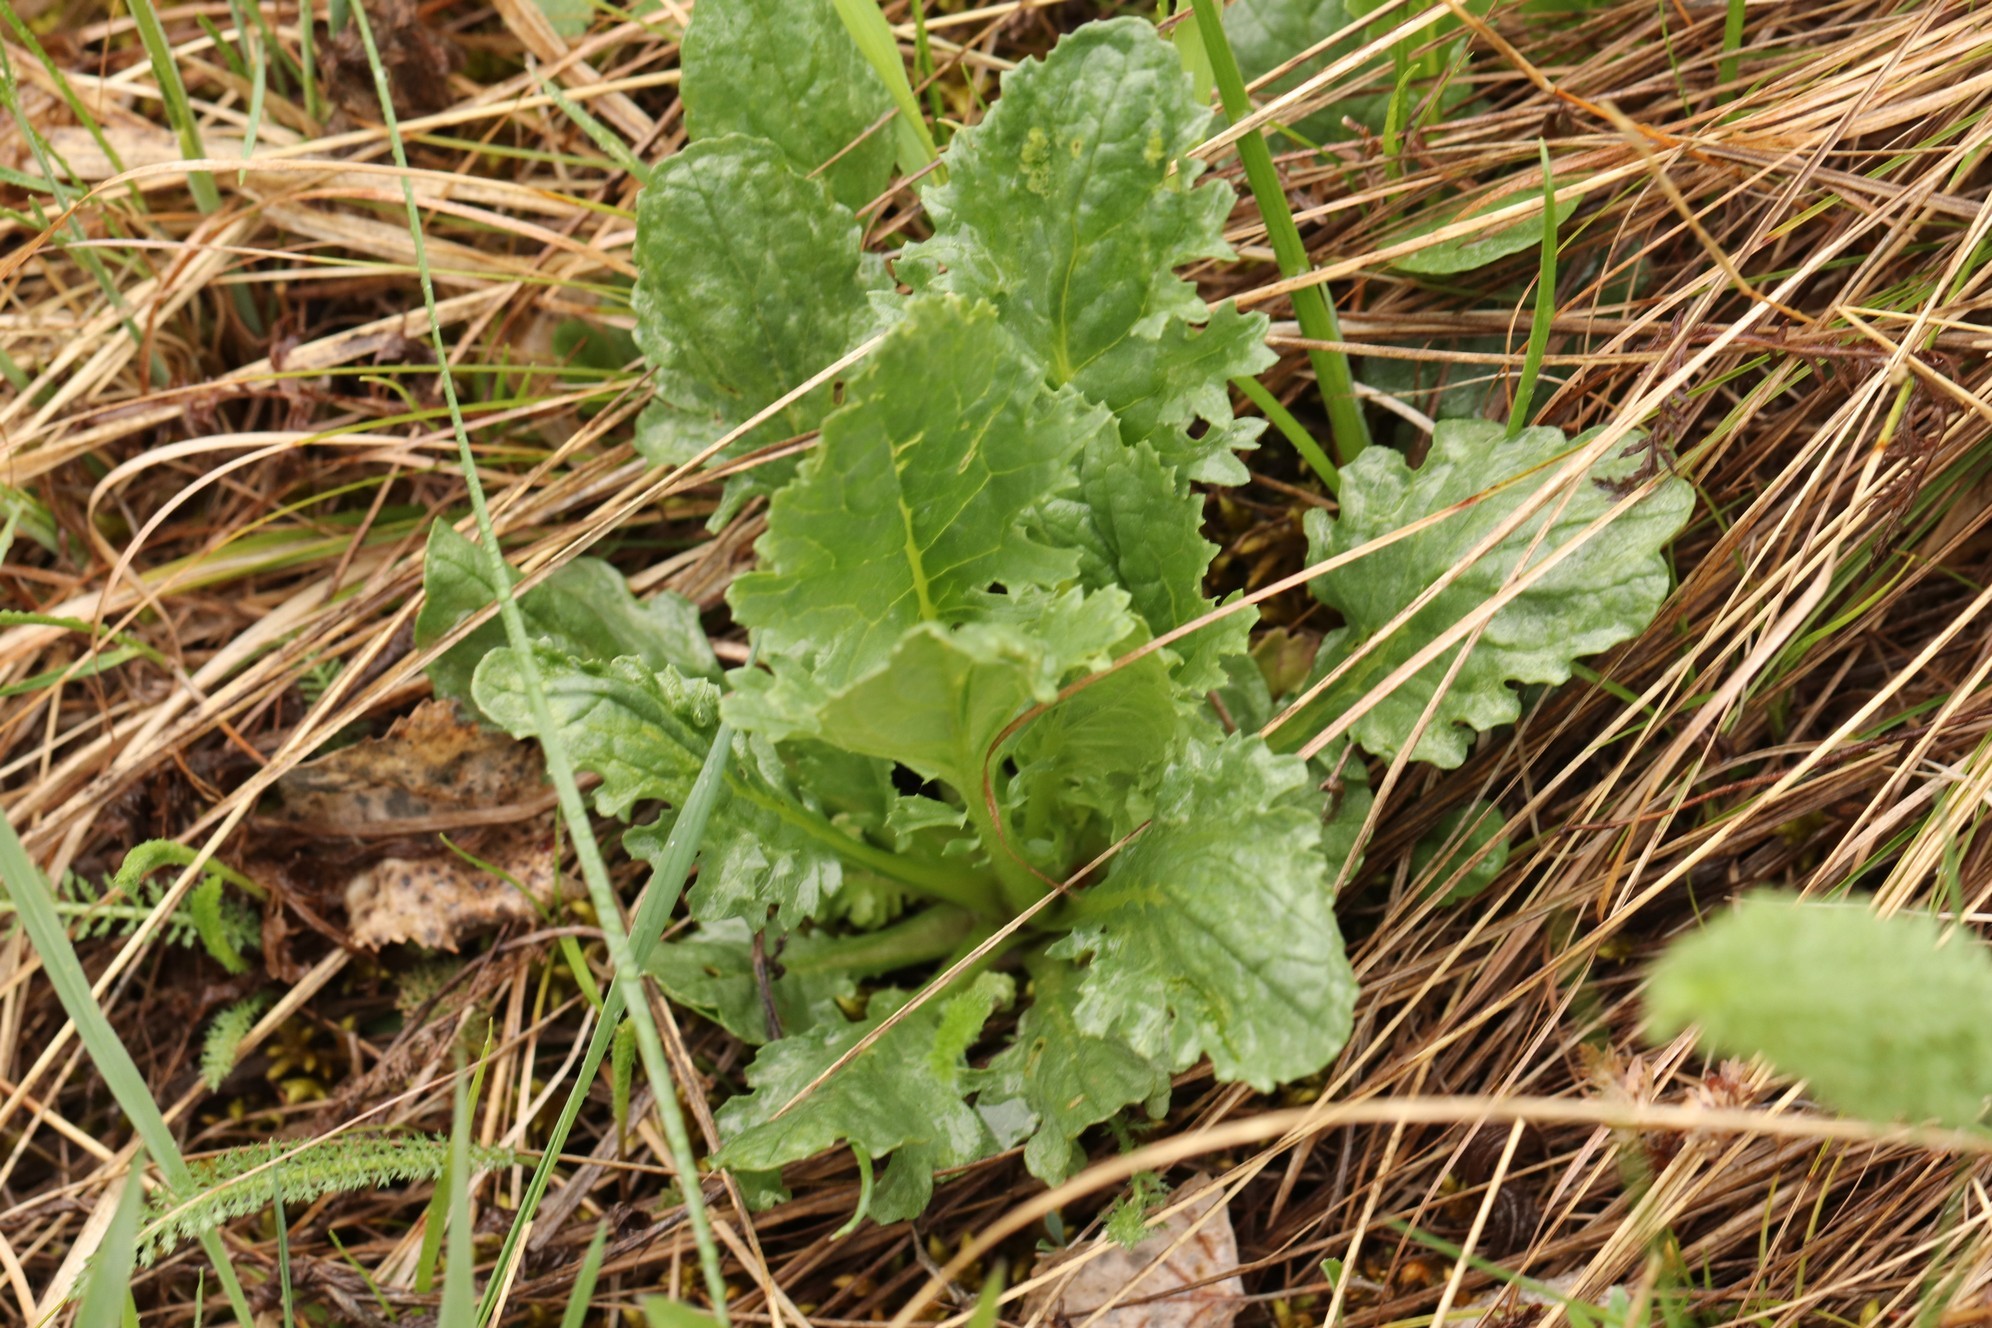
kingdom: Plantae
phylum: Tracheophyta
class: Magnoliopsida
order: Asterales
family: Asteraceae
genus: Jacobaea
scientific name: Jacobaea vulgaris
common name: Stinking willie
